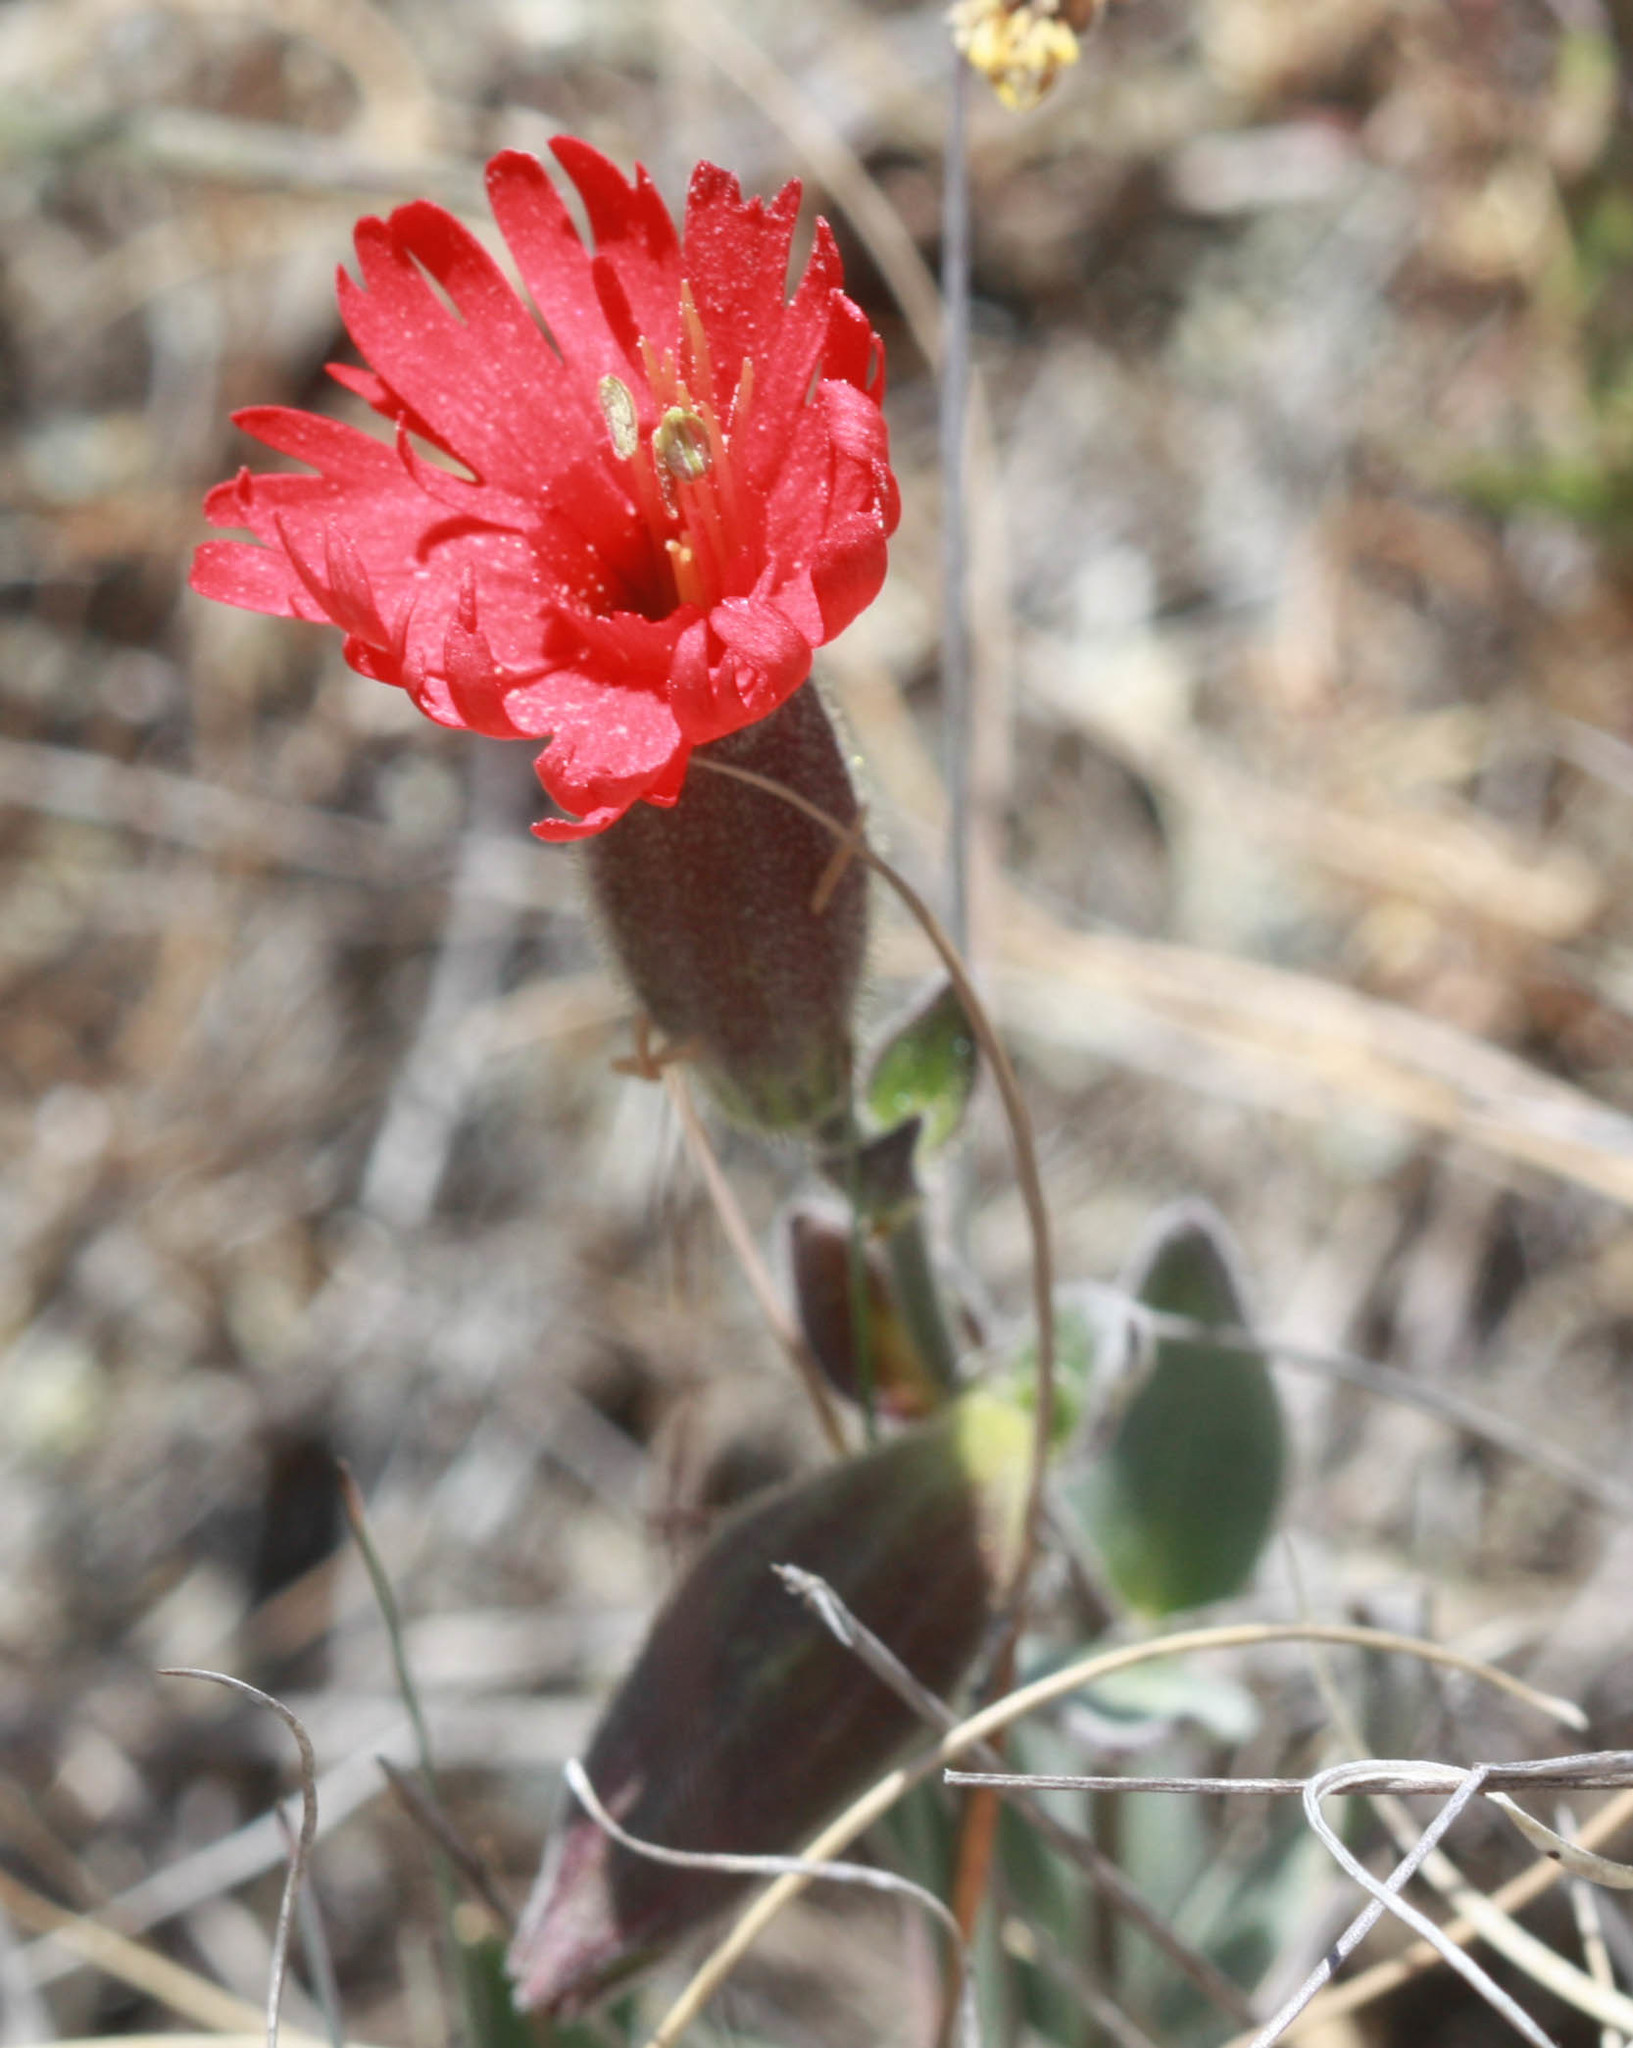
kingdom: Plantae
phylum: Tracheophyta
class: Magnoliopsida
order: Caryophyllales
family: Caryophyllaceae
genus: Silene
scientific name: Silene laciniata
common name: Indian-pink
